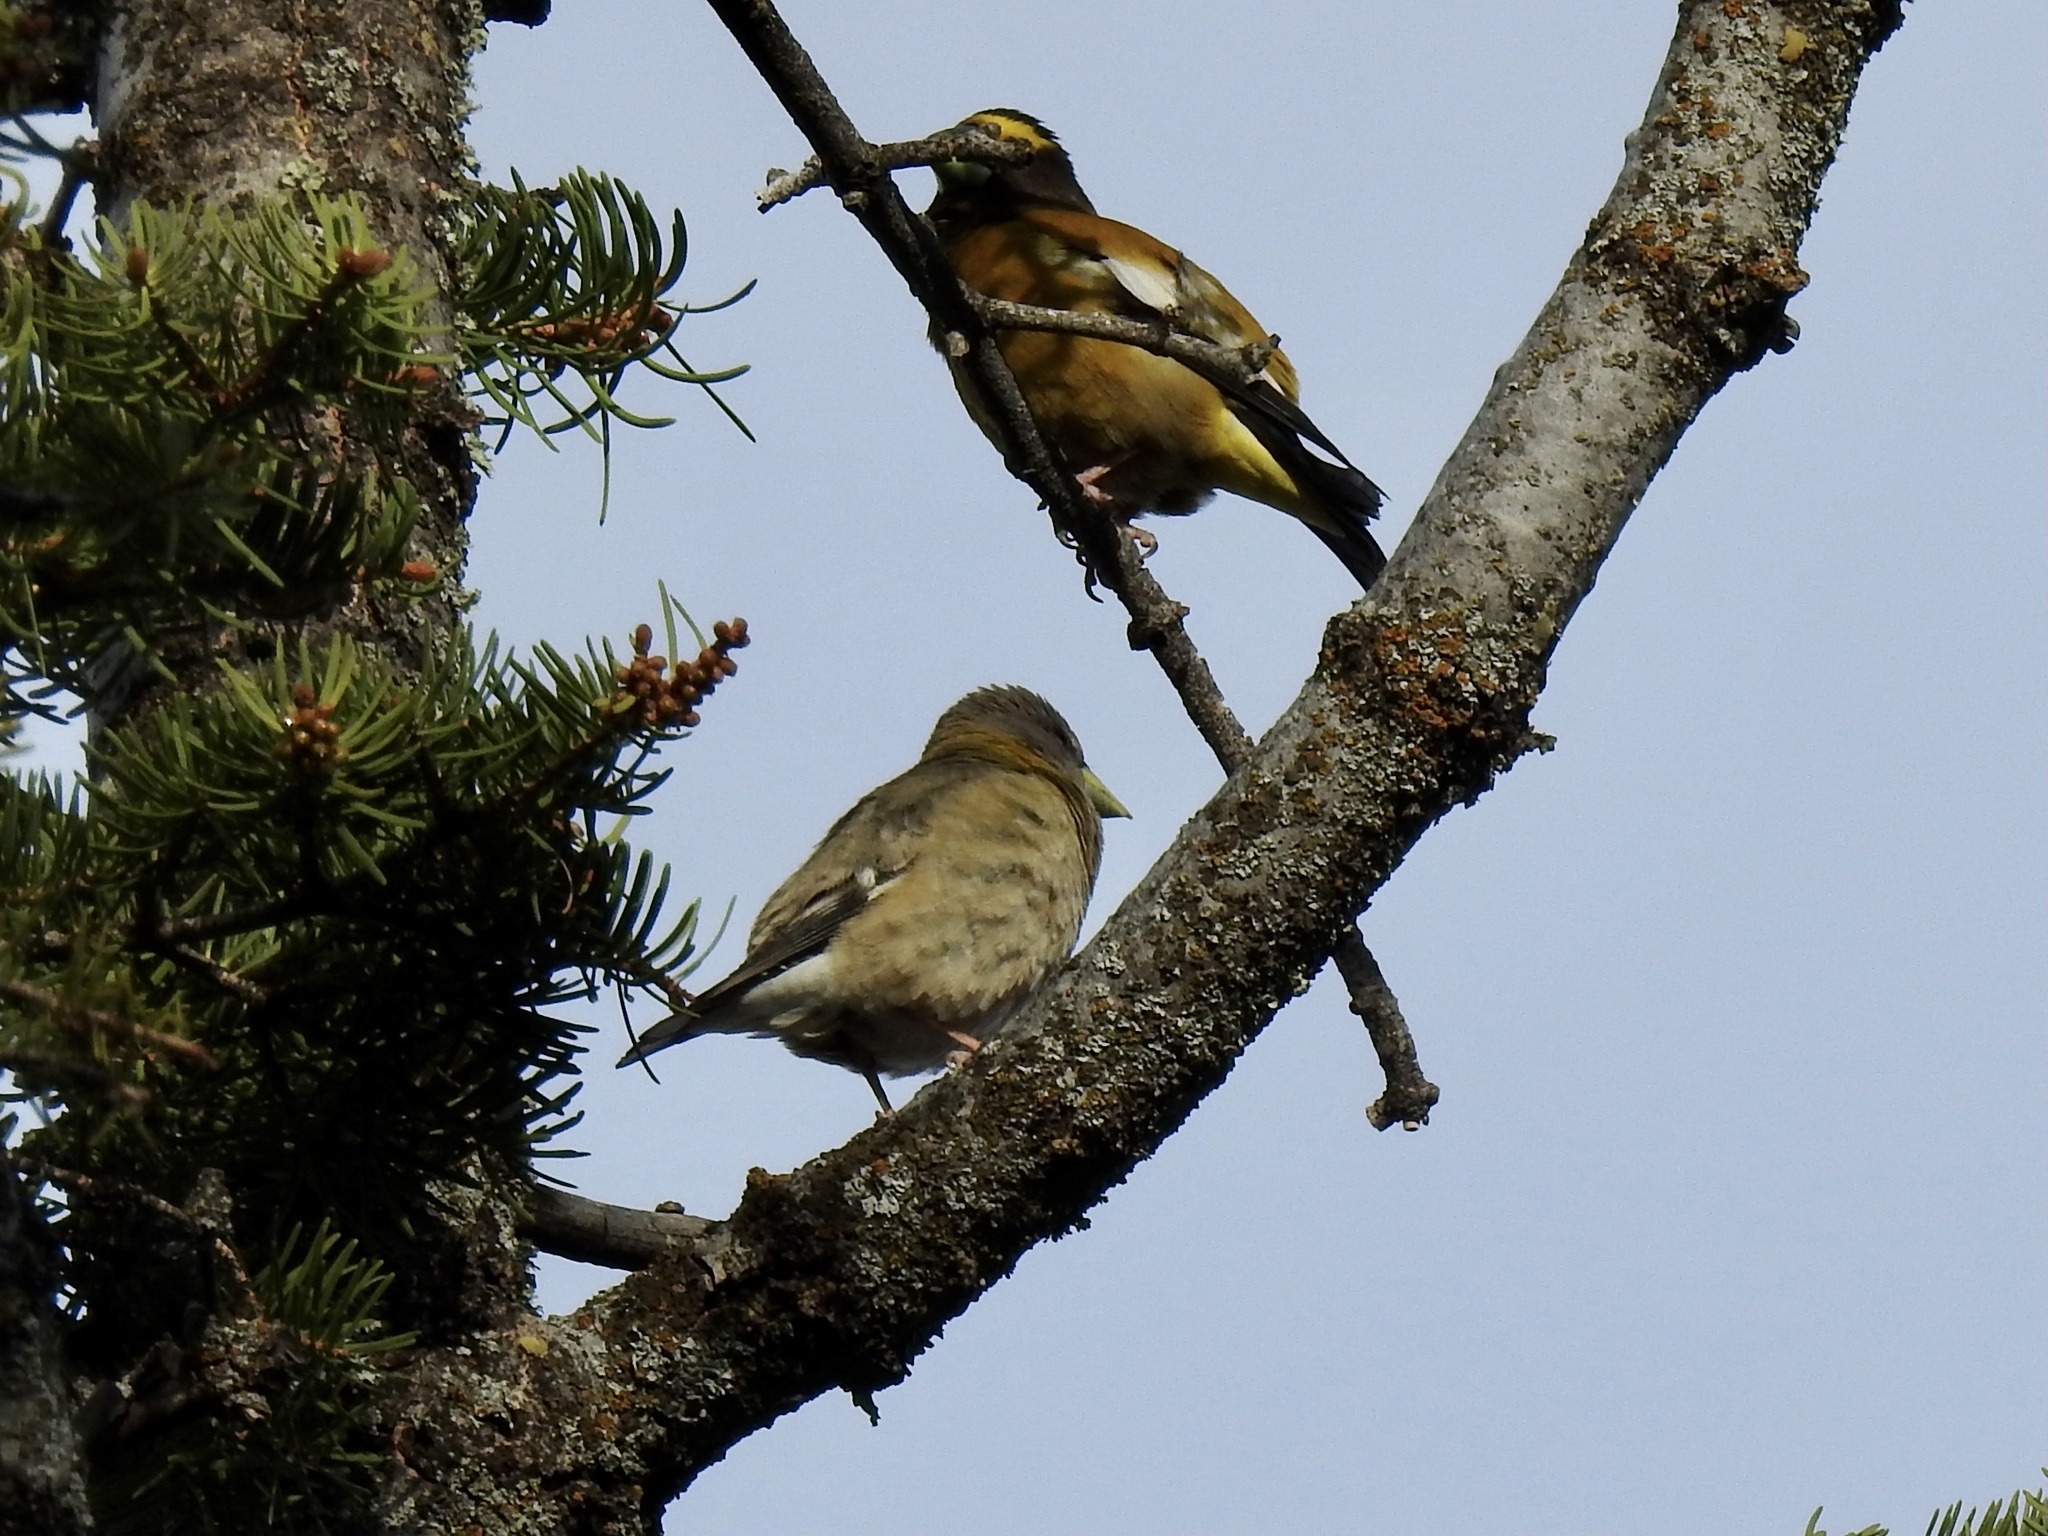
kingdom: Animalia
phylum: Chordata
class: Aves
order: Passeriformes
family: Fringillidae
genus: Hesperiphona
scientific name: Hesperiphona vespertina
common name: Evening grosbeak
